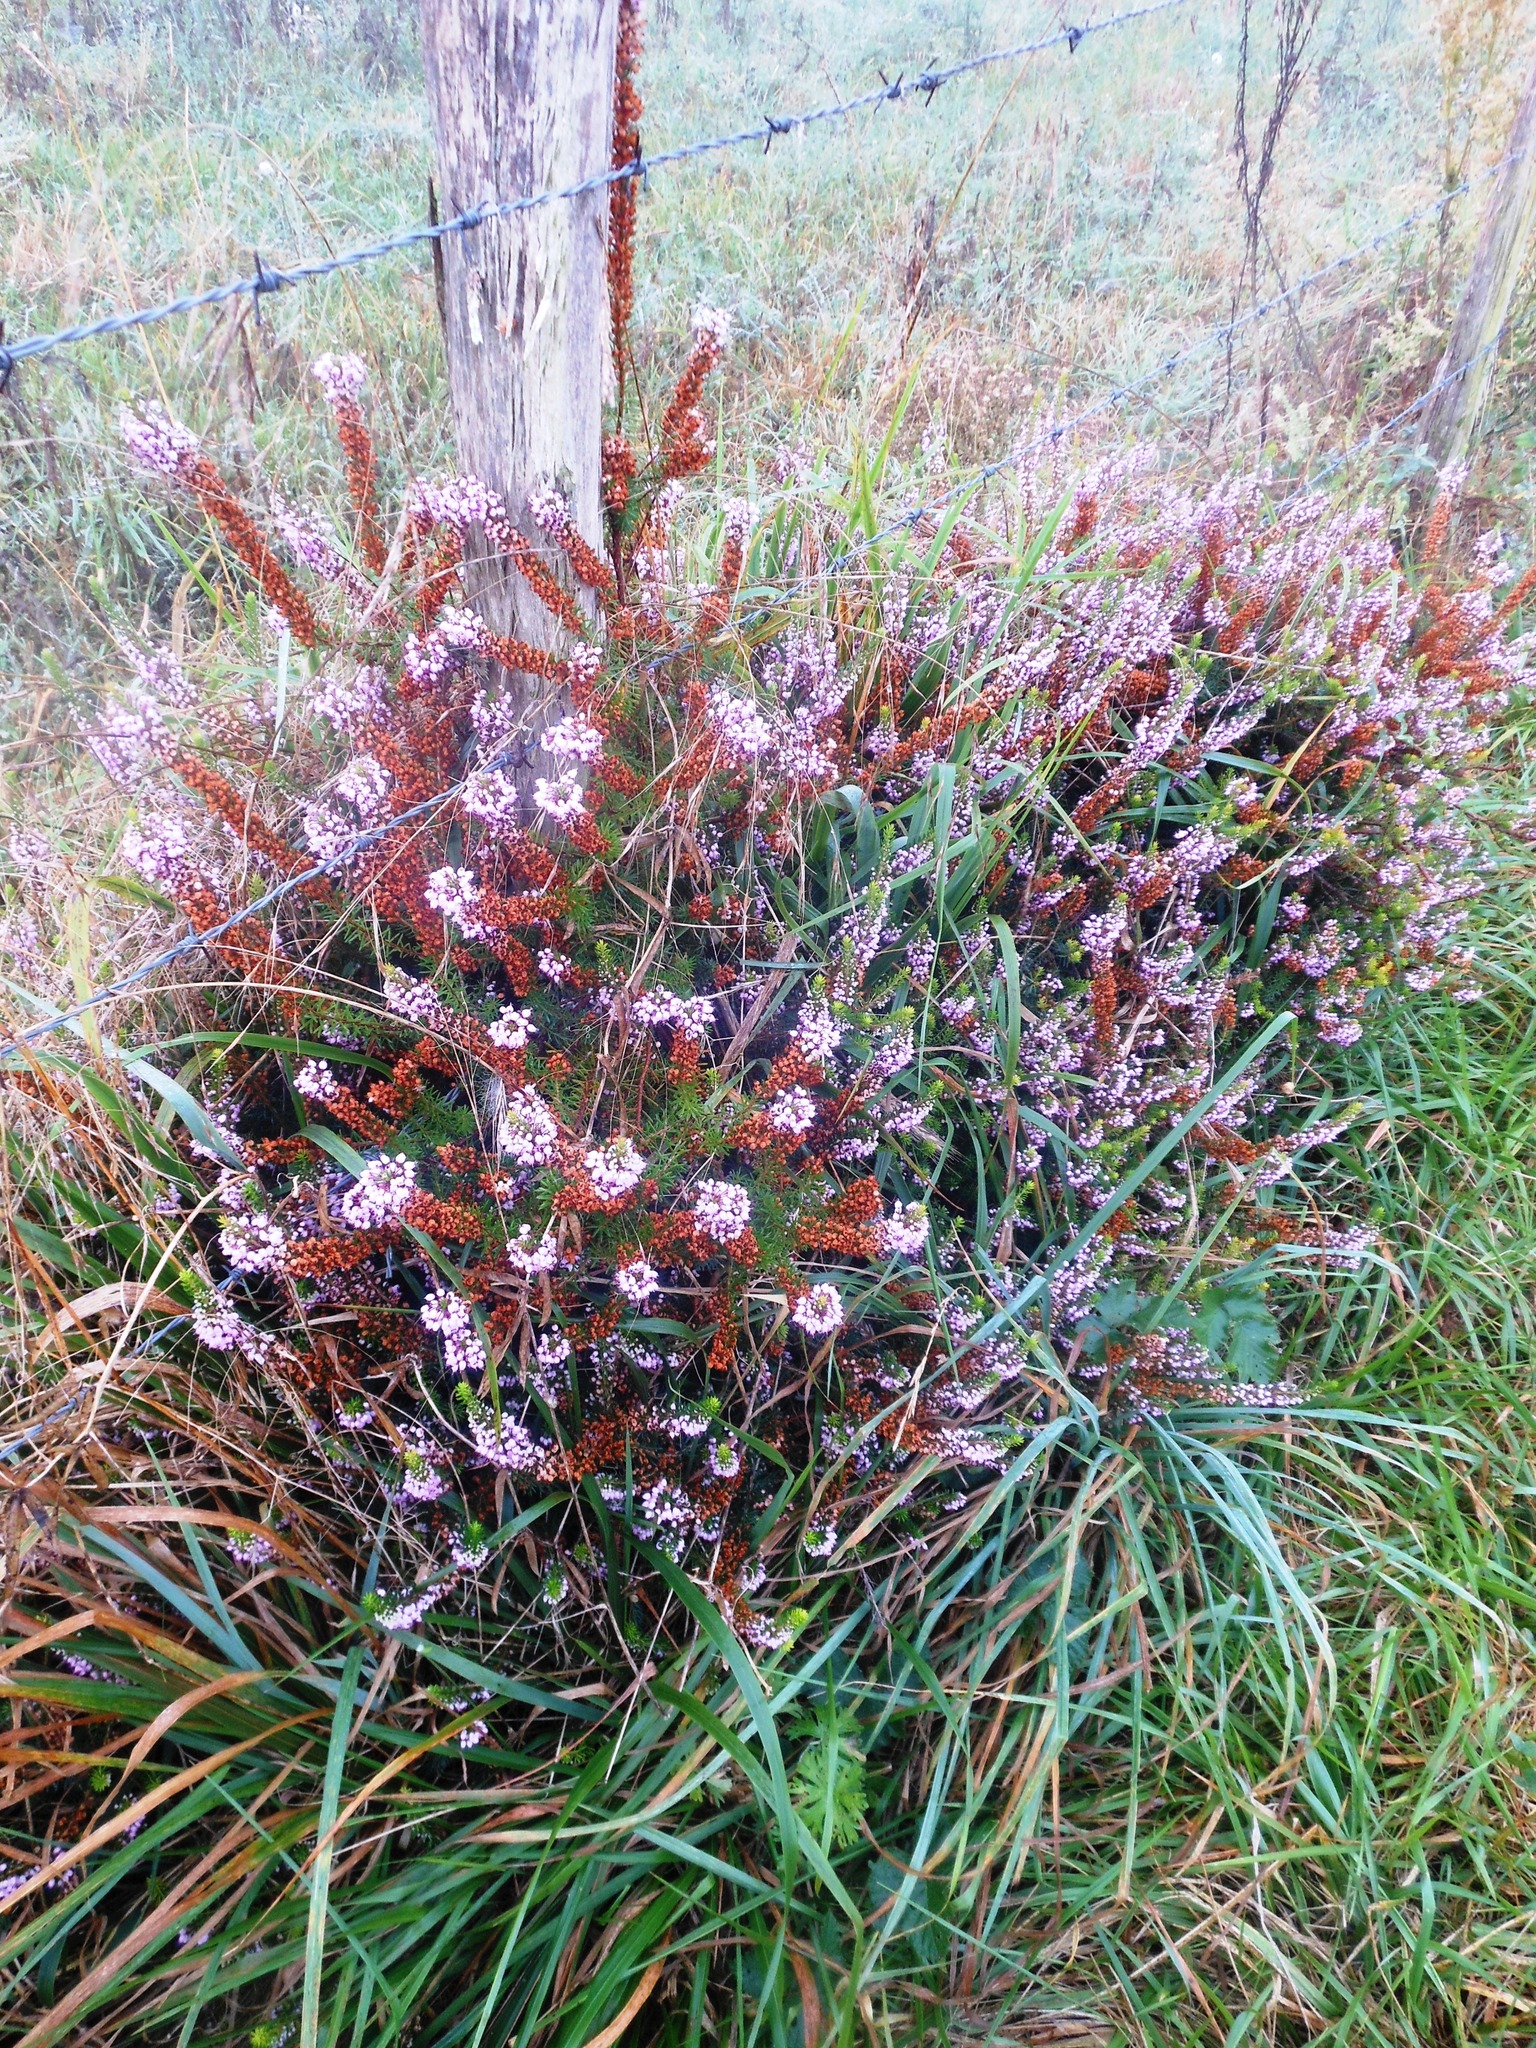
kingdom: Plantae
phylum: Tracheophyta
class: Magnoliopsida
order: Ericales
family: Ericaceae
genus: Erica
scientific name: Erica vagans
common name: Cornish heath
